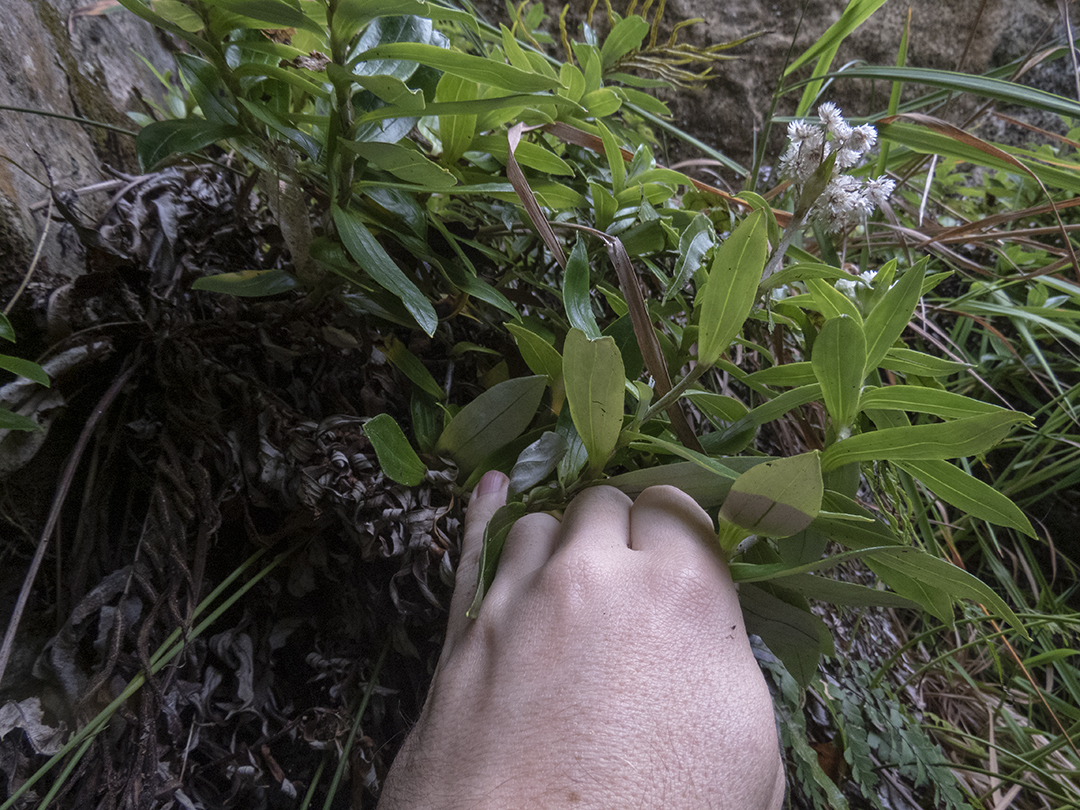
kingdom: Plantae
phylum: Tracheophyta
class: Magnoliopsida
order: Asterales
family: Asteraceae
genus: Anaphalioides
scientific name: Anaphalioides trinervis
